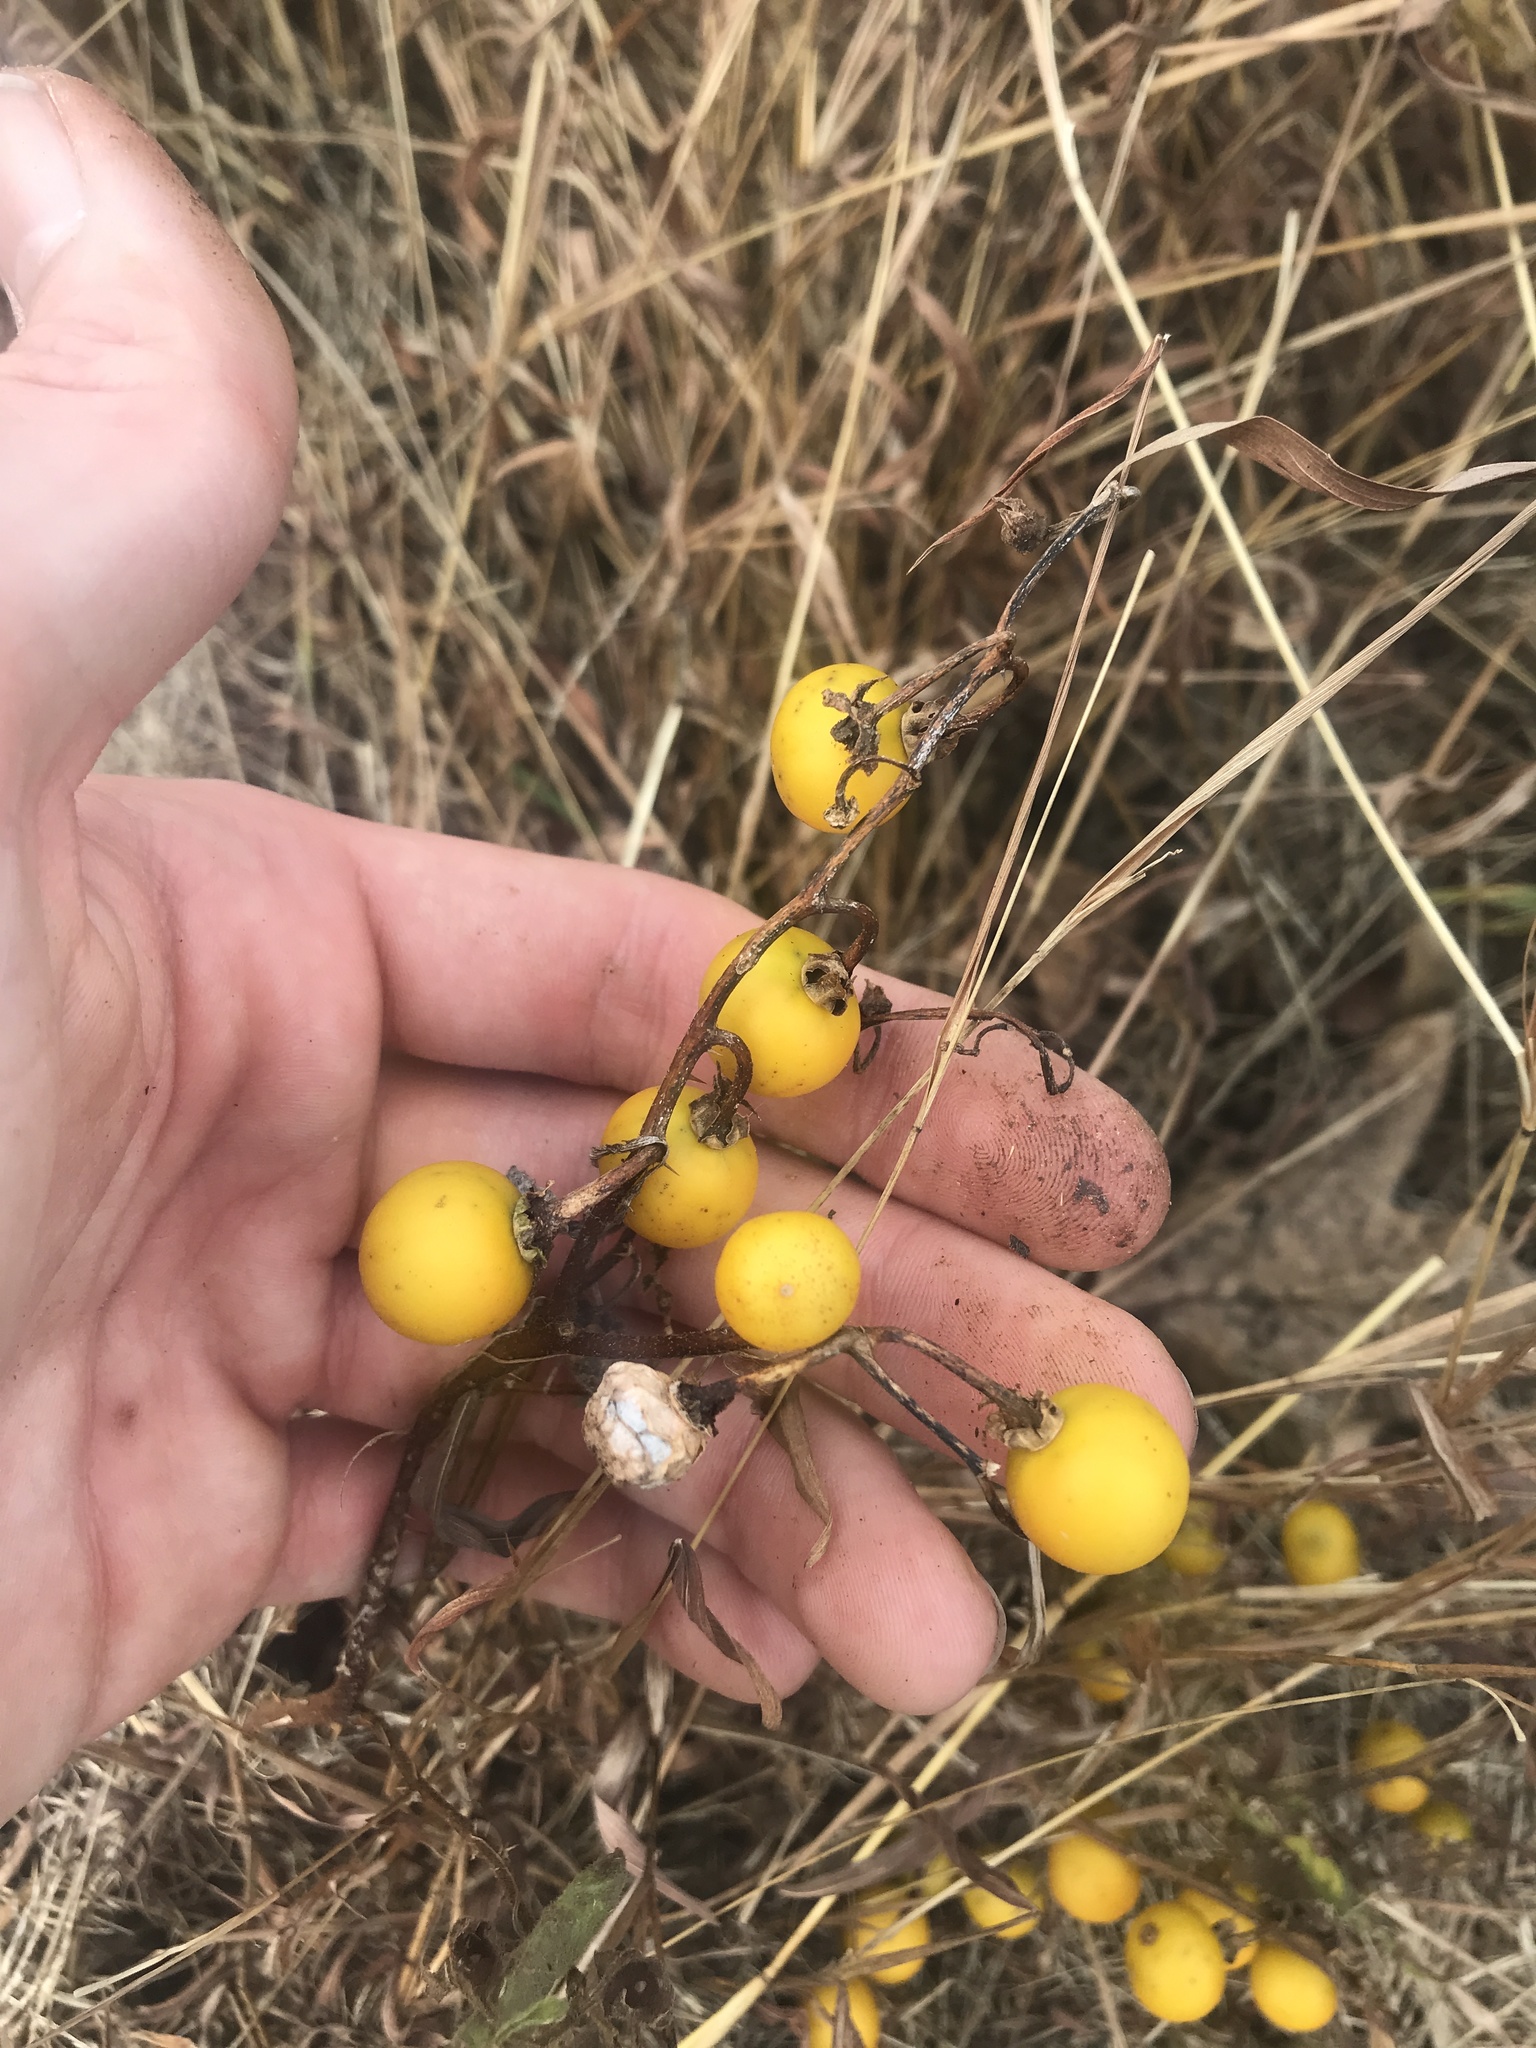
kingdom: Plantae
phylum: Tracheophyta
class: Magnoliopsida
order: Solanales
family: Solanaceae
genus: Solanum
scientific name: Solanum carolinense
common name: Horse-nettle
